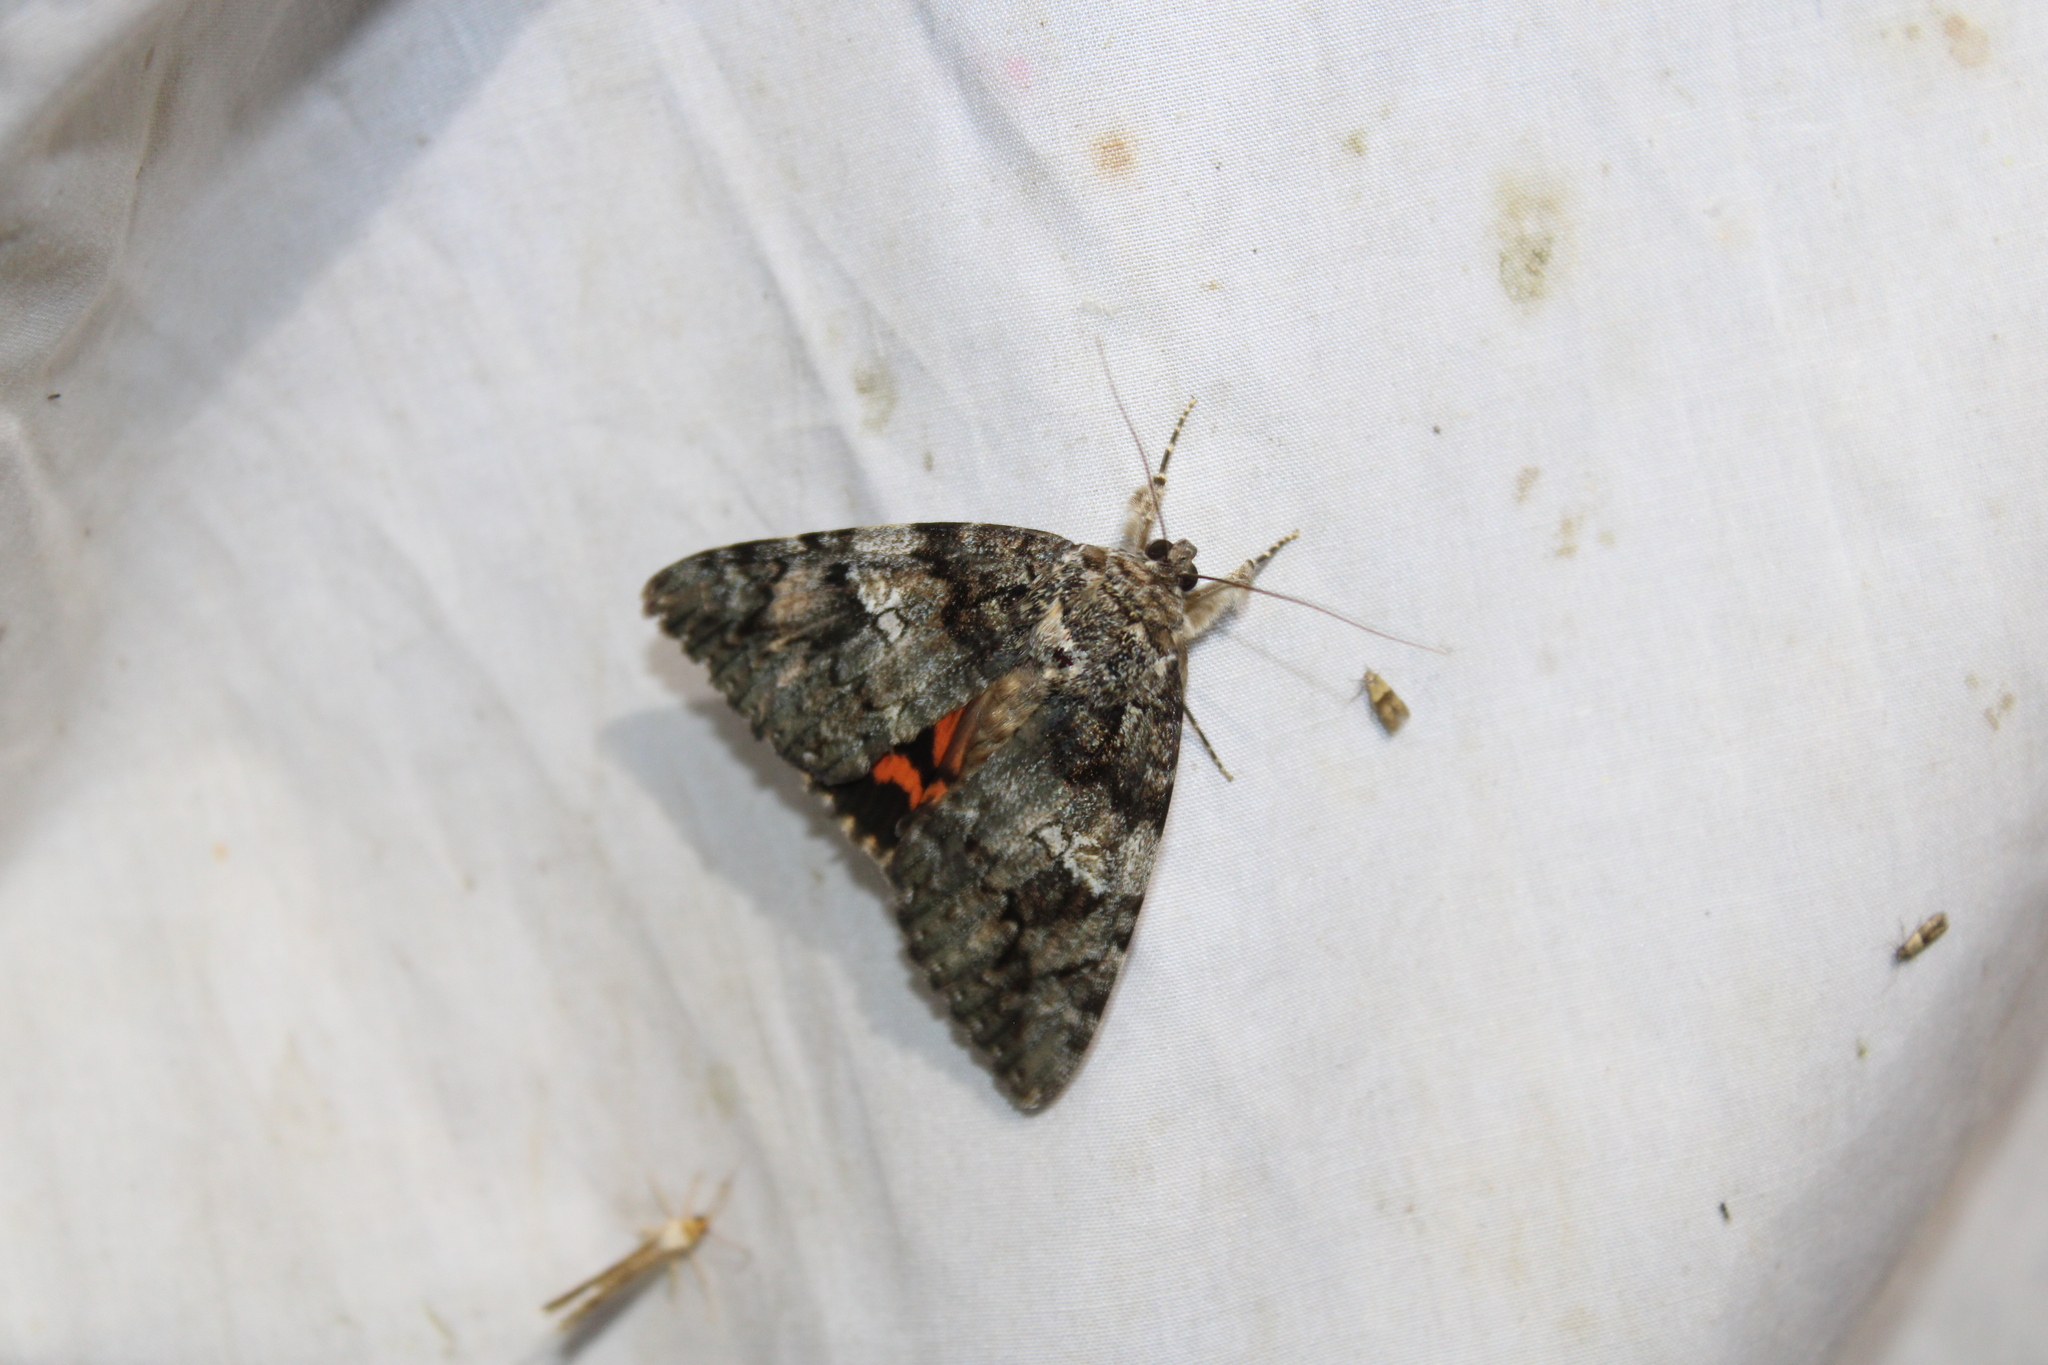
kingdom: Animalia
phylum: Arthropoda
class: Insecta
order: Lepidoptera
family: Erebidae
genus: Catocala
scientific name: Catocala ilia
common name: Ilia underwing
